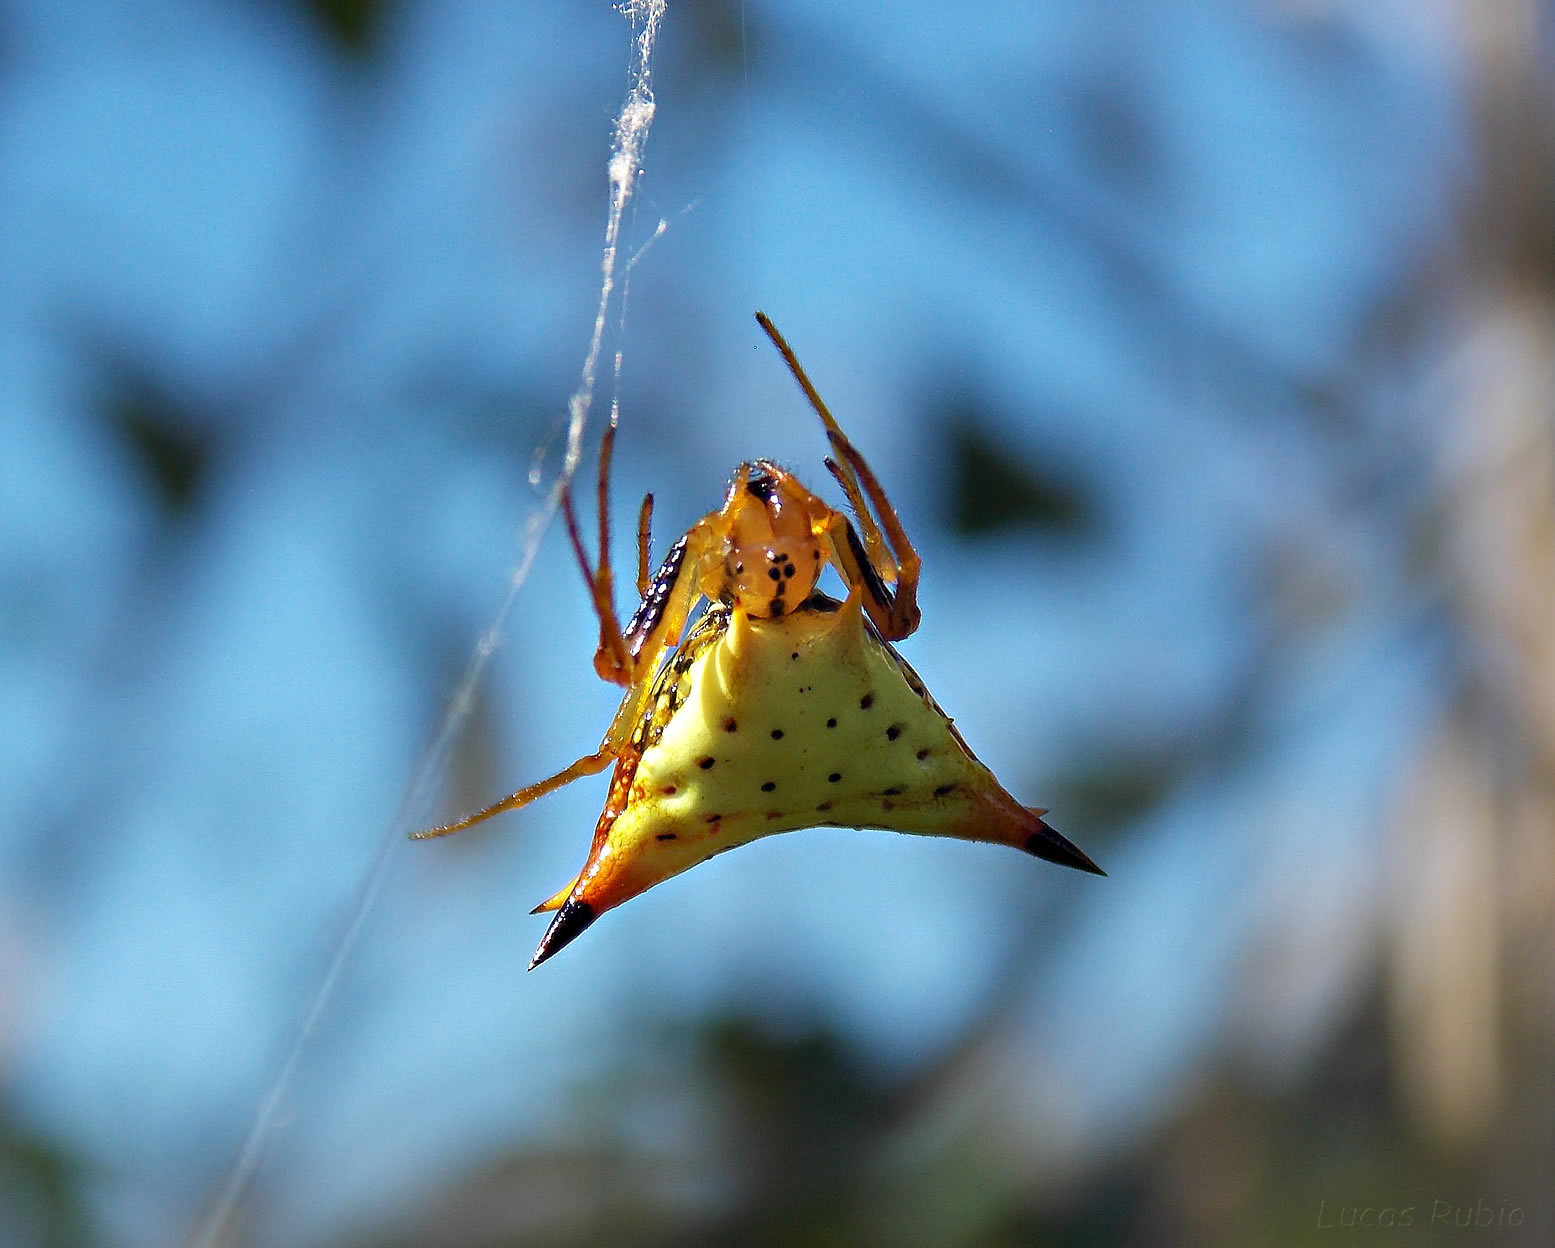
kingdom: Animalia
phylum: Arthropoda
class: Arachnida
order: Araneae
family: Araneidae
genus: Micrathena
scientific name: Micrathena furcata
